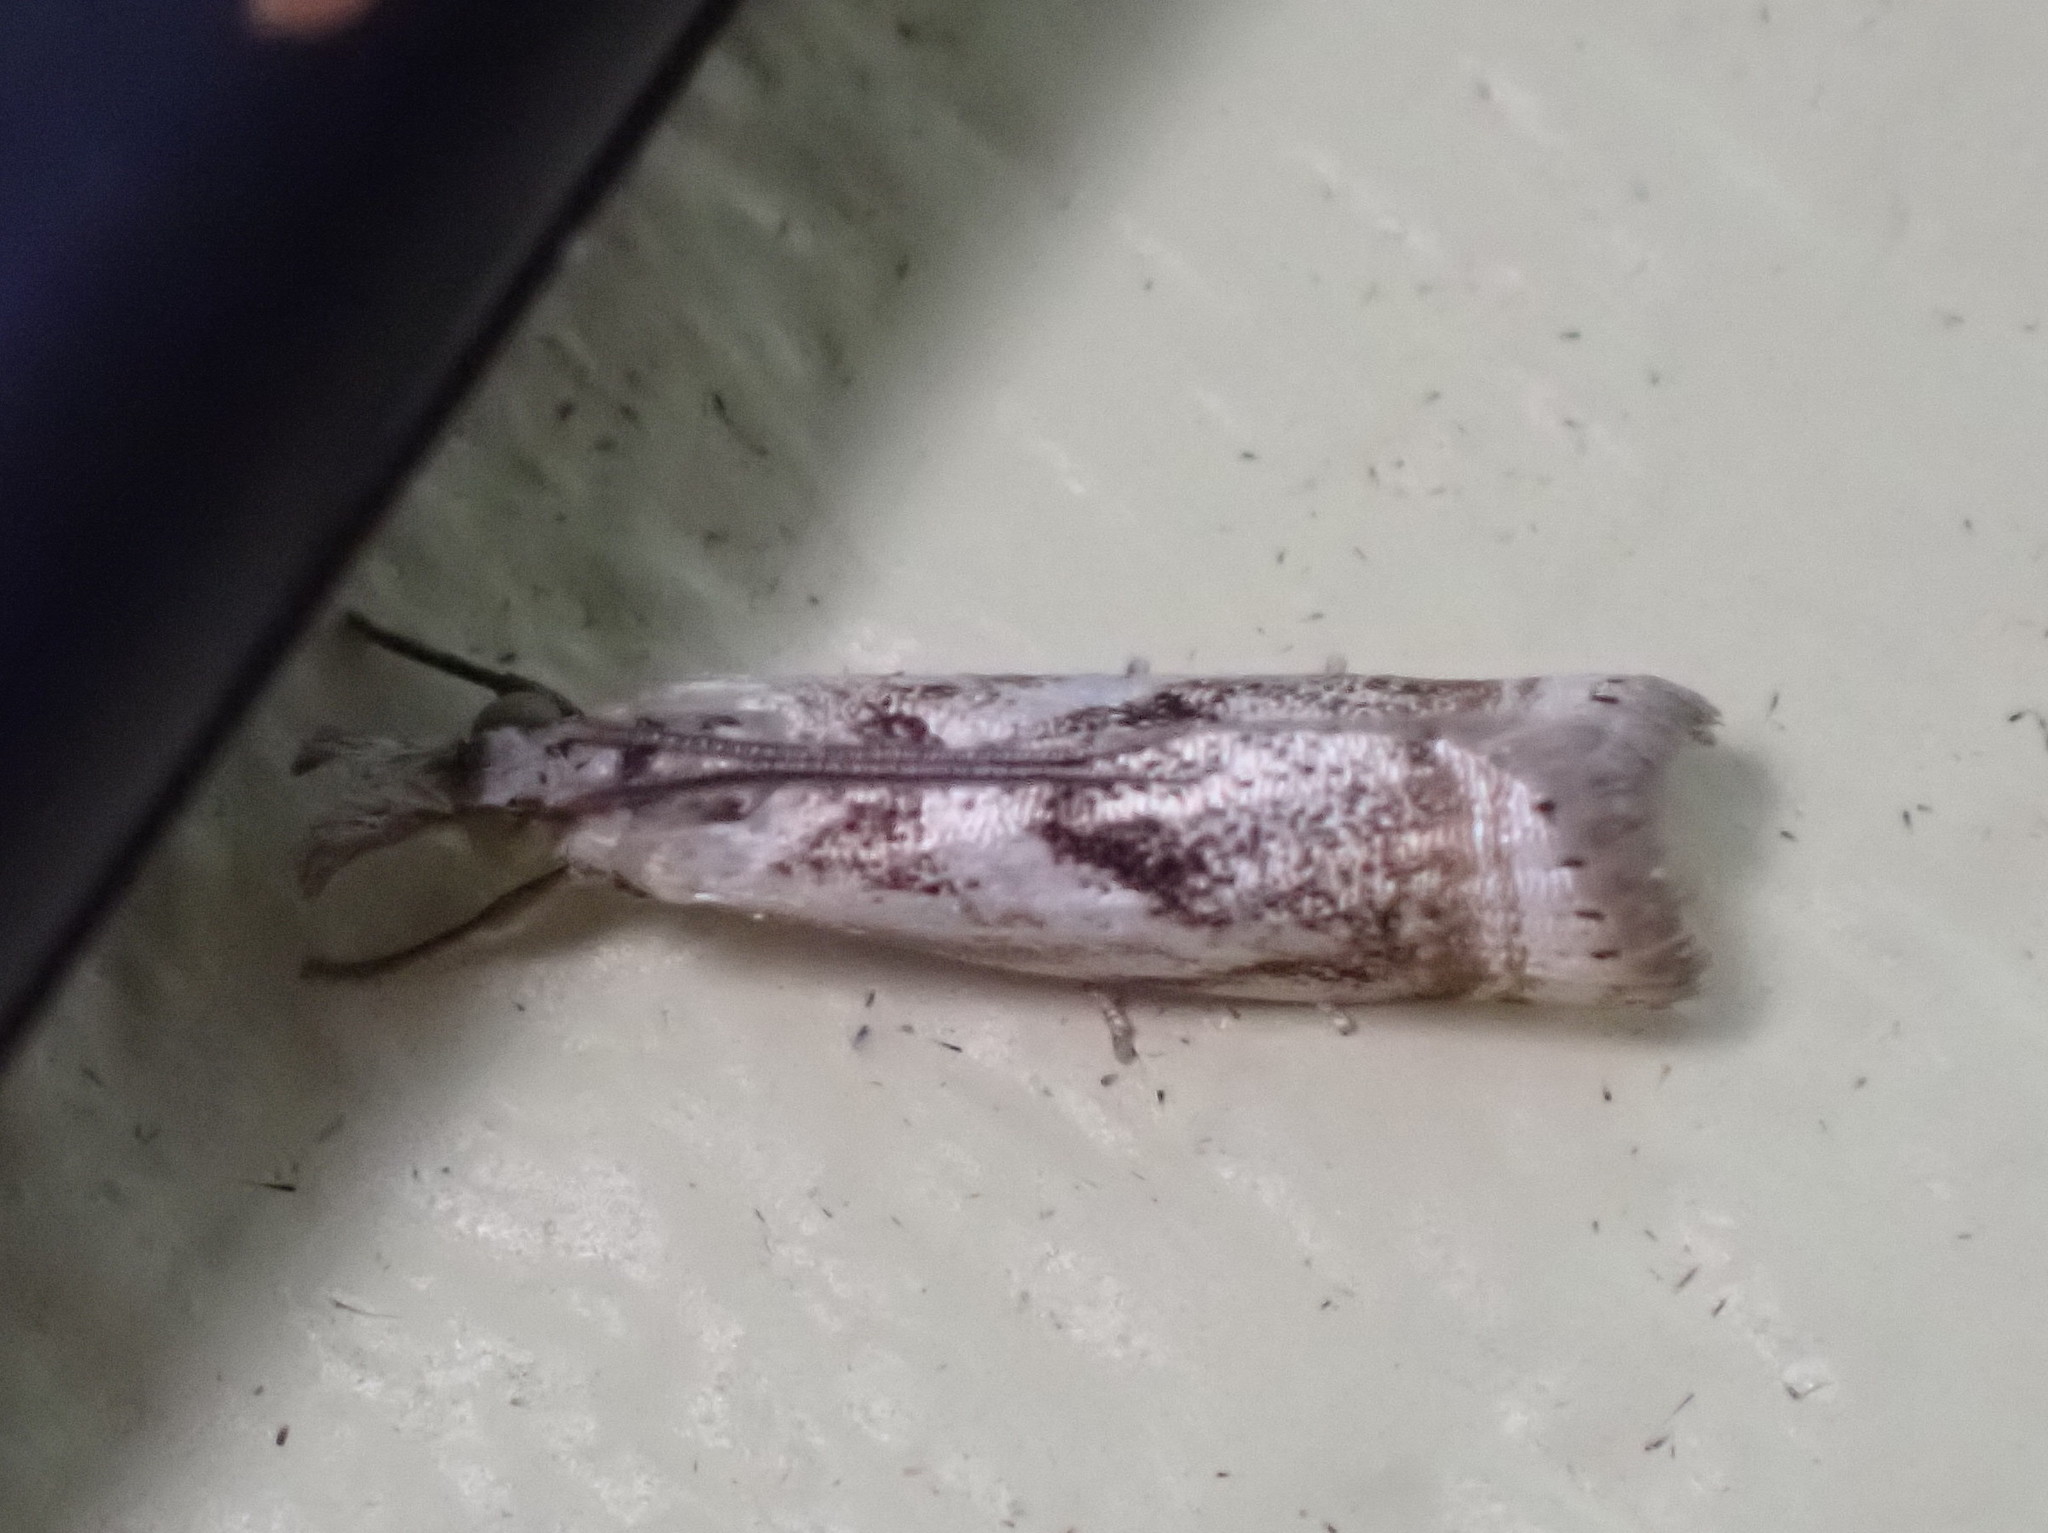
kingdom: Animalia
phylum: Arthropoda
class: Insecta
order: Lepidoptera
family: Crambidae
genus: Microcrambus
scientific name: Microcrambus elegans
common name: Elegant grass-veneer
